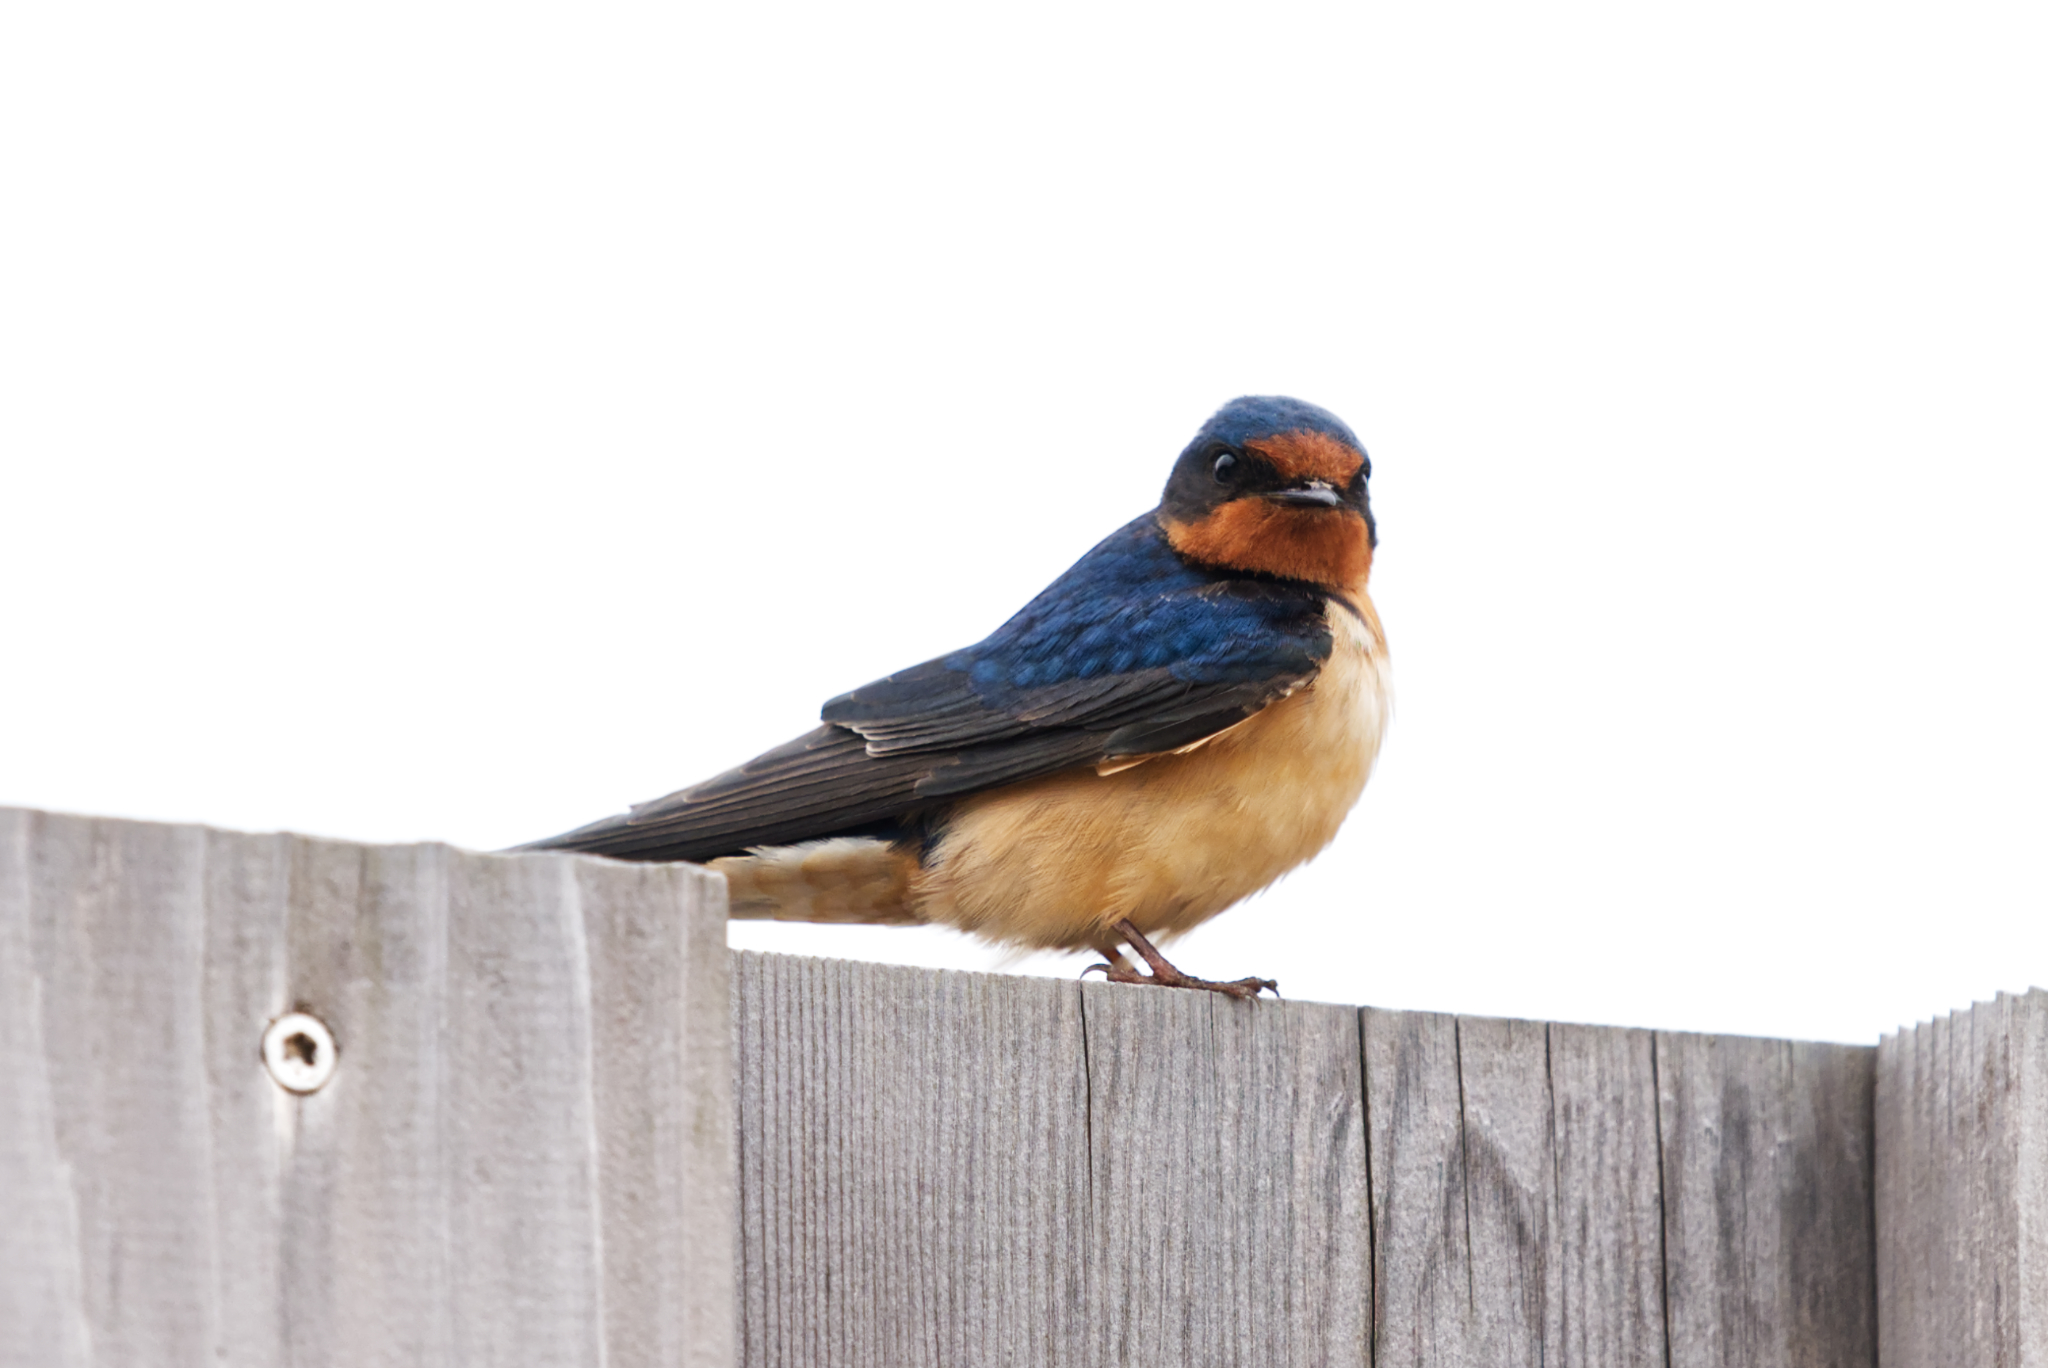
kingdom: Animalia
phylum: Chordata
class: Aves
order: Passeriformes
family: Hirundinidae
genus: Hirundo
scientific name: Hirundo rustica
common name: Barn swallow
